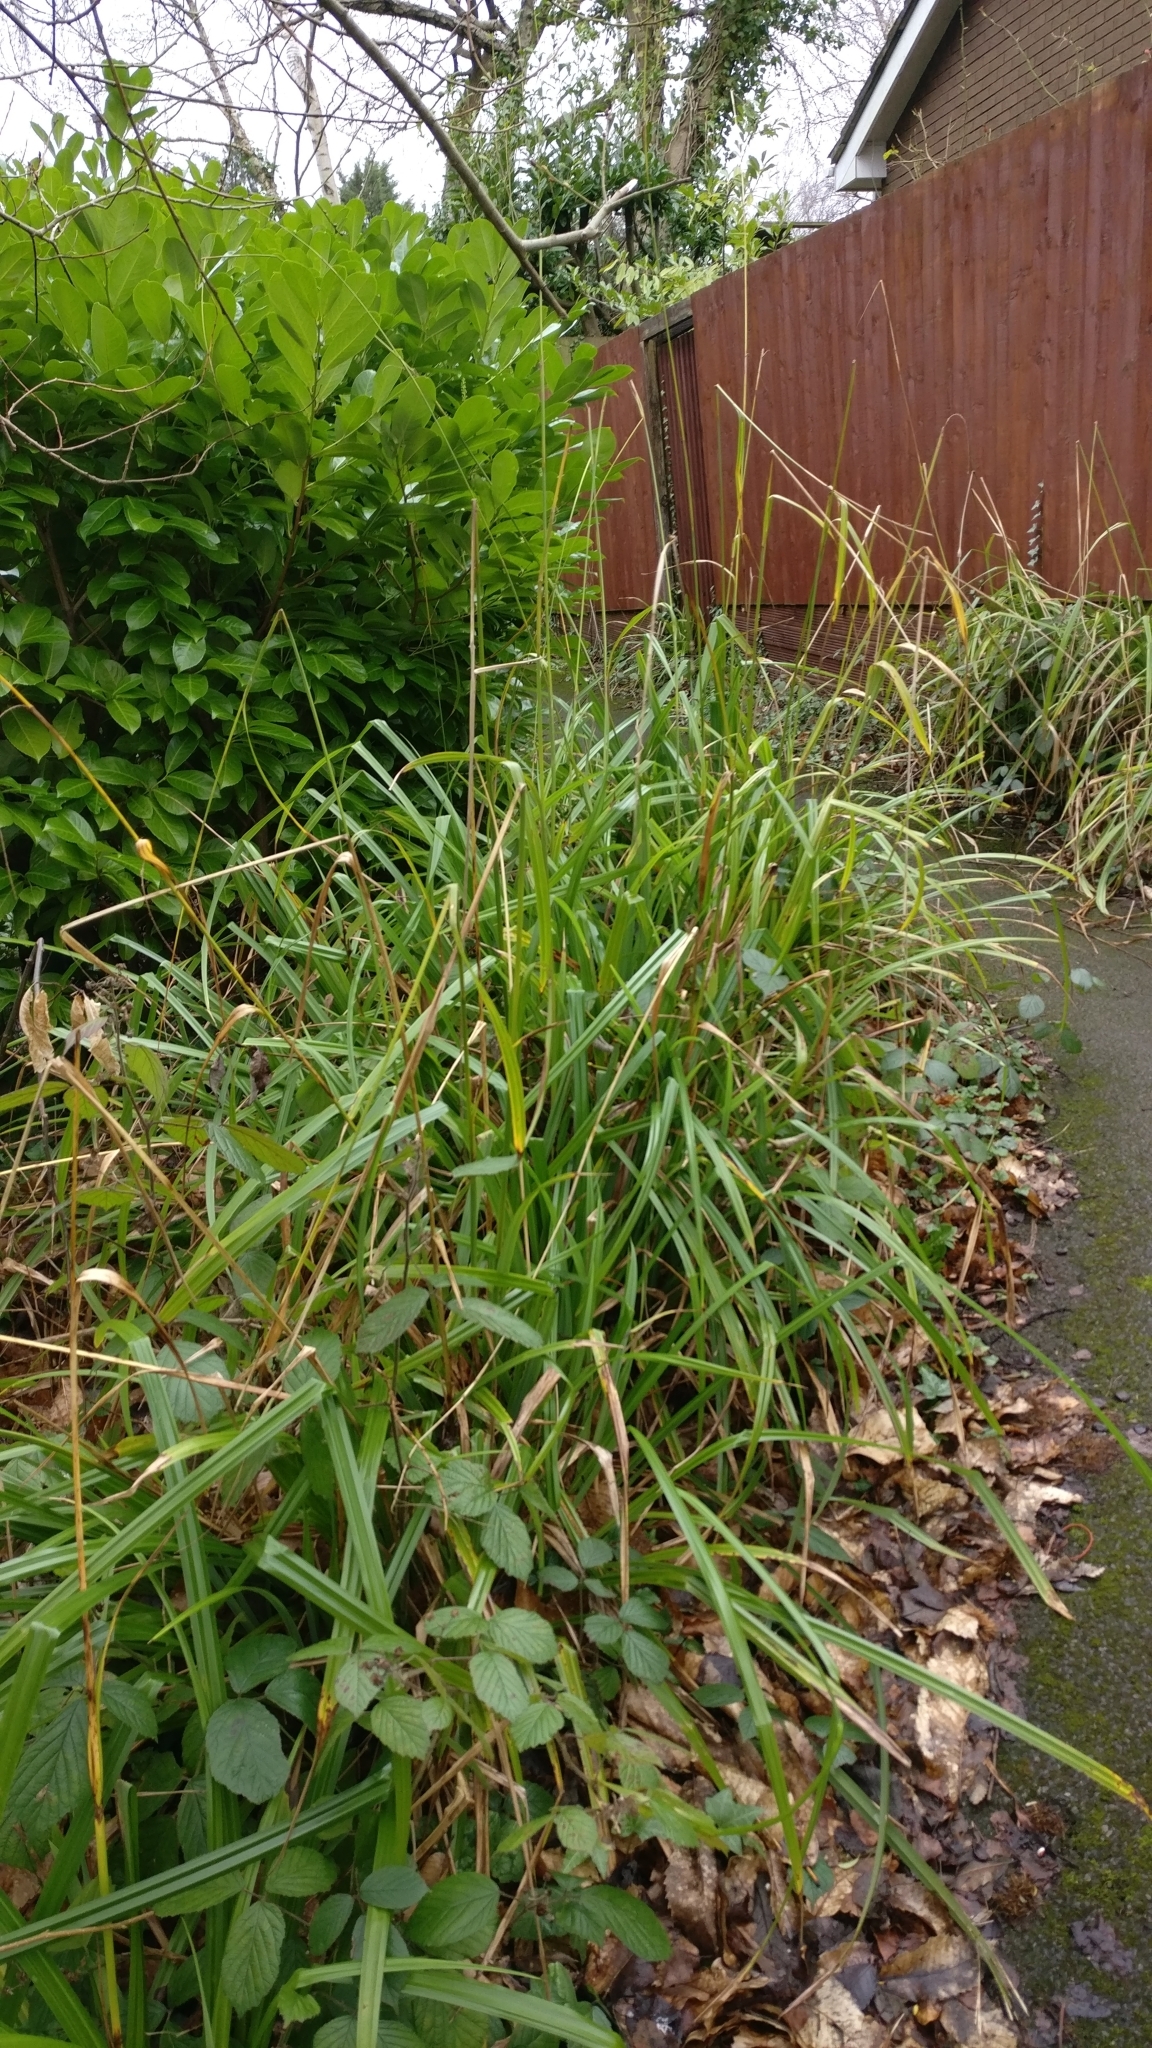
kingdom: Plantae
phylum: Tracheophyta
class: Liliopsida
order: Poales
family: Cyperaceae
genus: Carex
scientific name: Carex pendula
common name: Pendulous sedge
